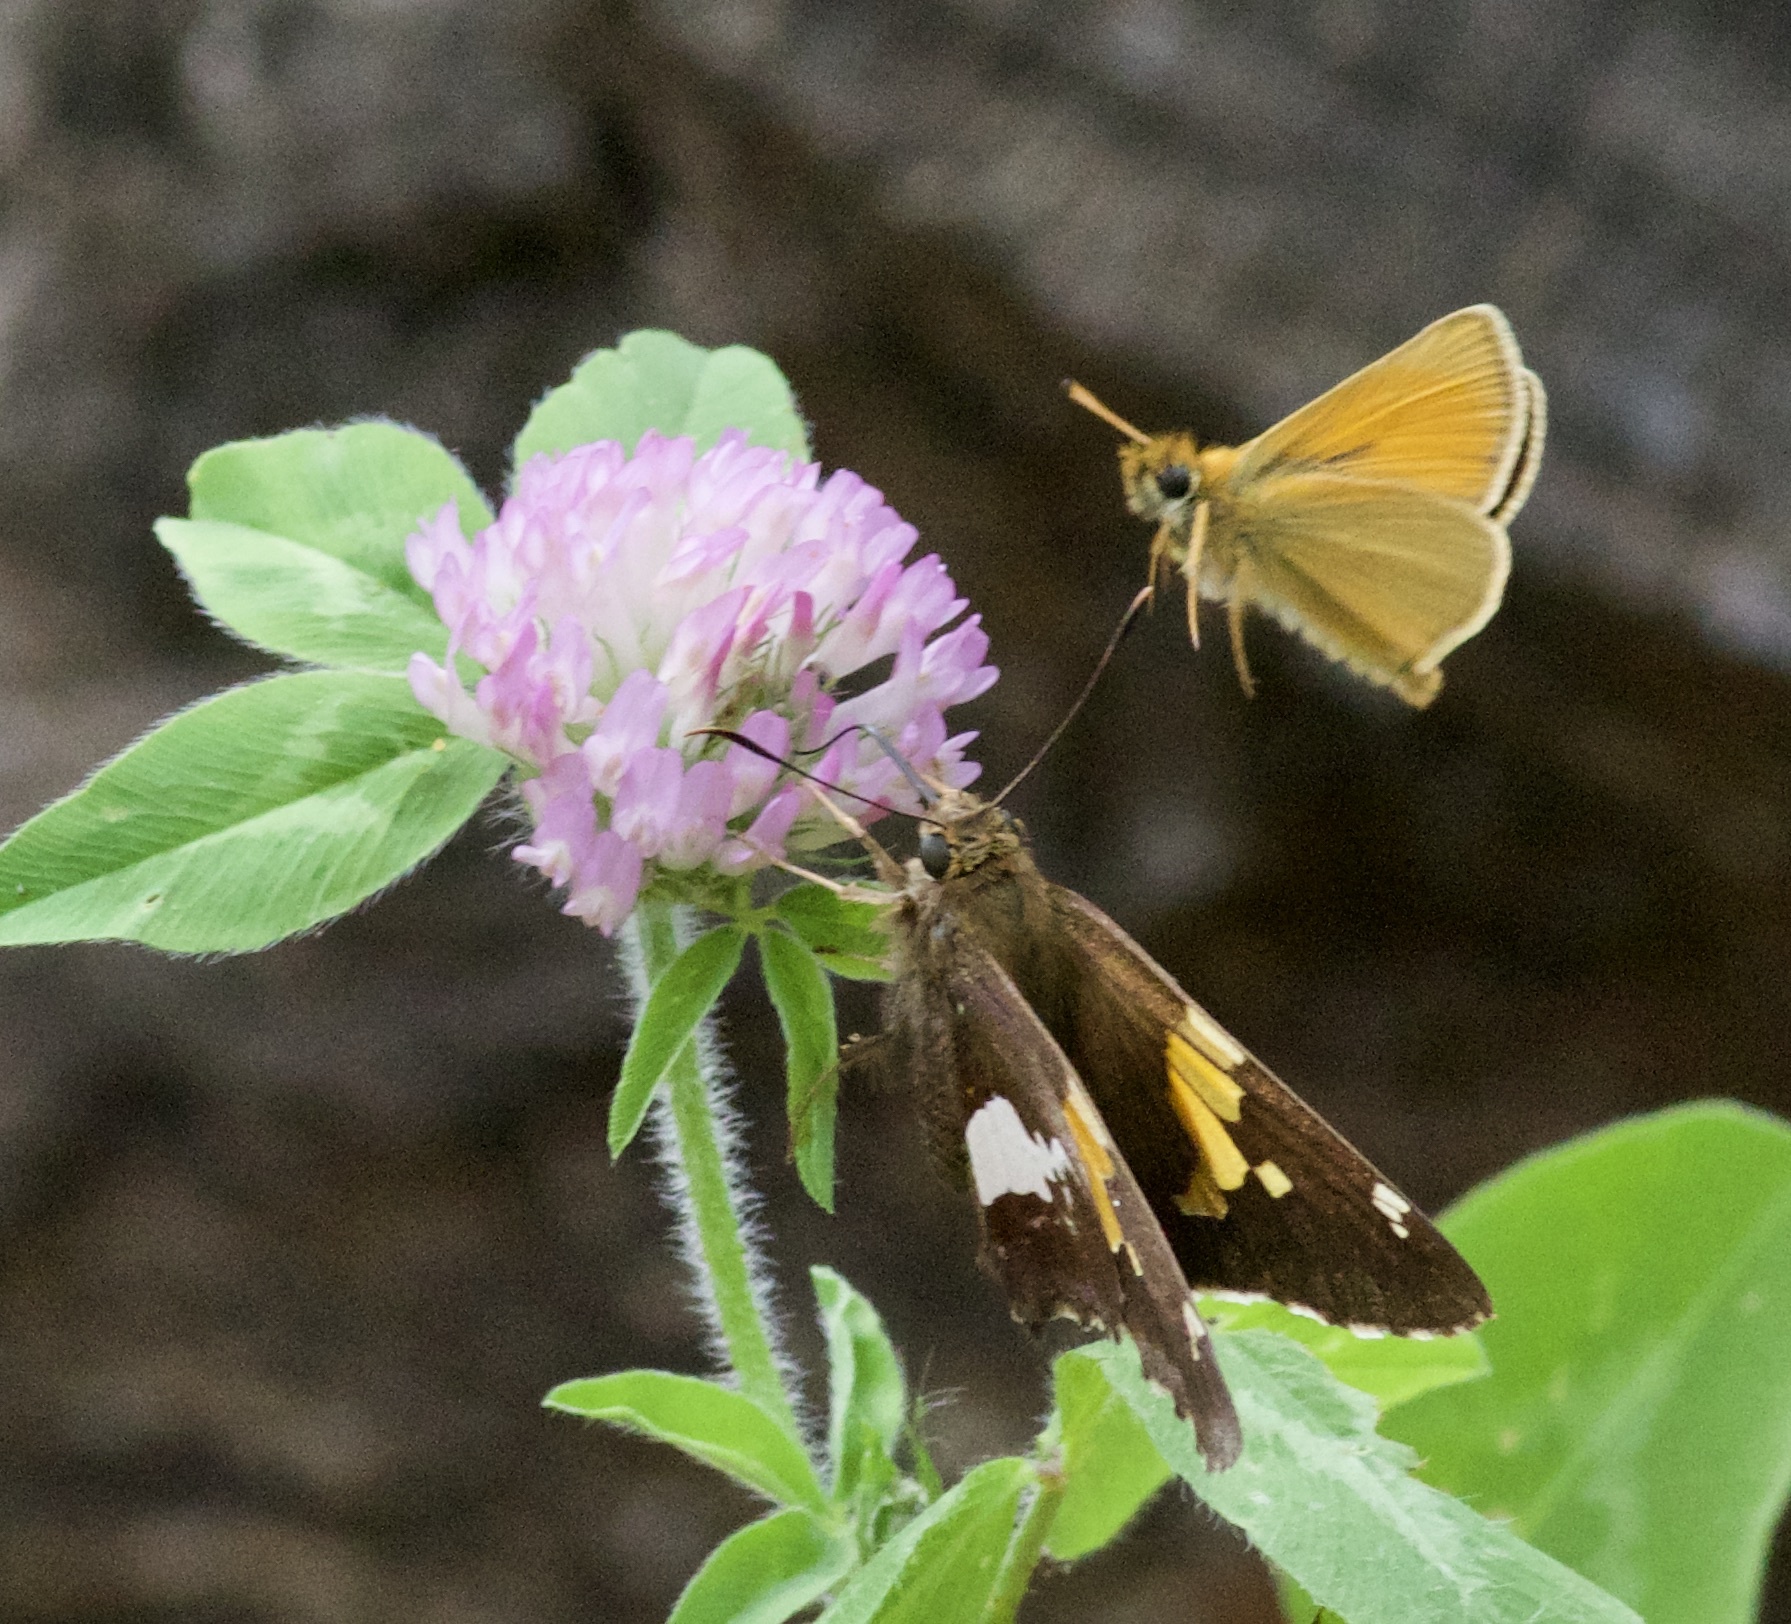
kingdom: Animalia
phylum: Arthropoda
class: Insecta
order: Lepidoptera
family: Hesperiidae
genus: Epargyreus
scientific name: Epargyreus clarus
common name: Silver-spotted skipper
